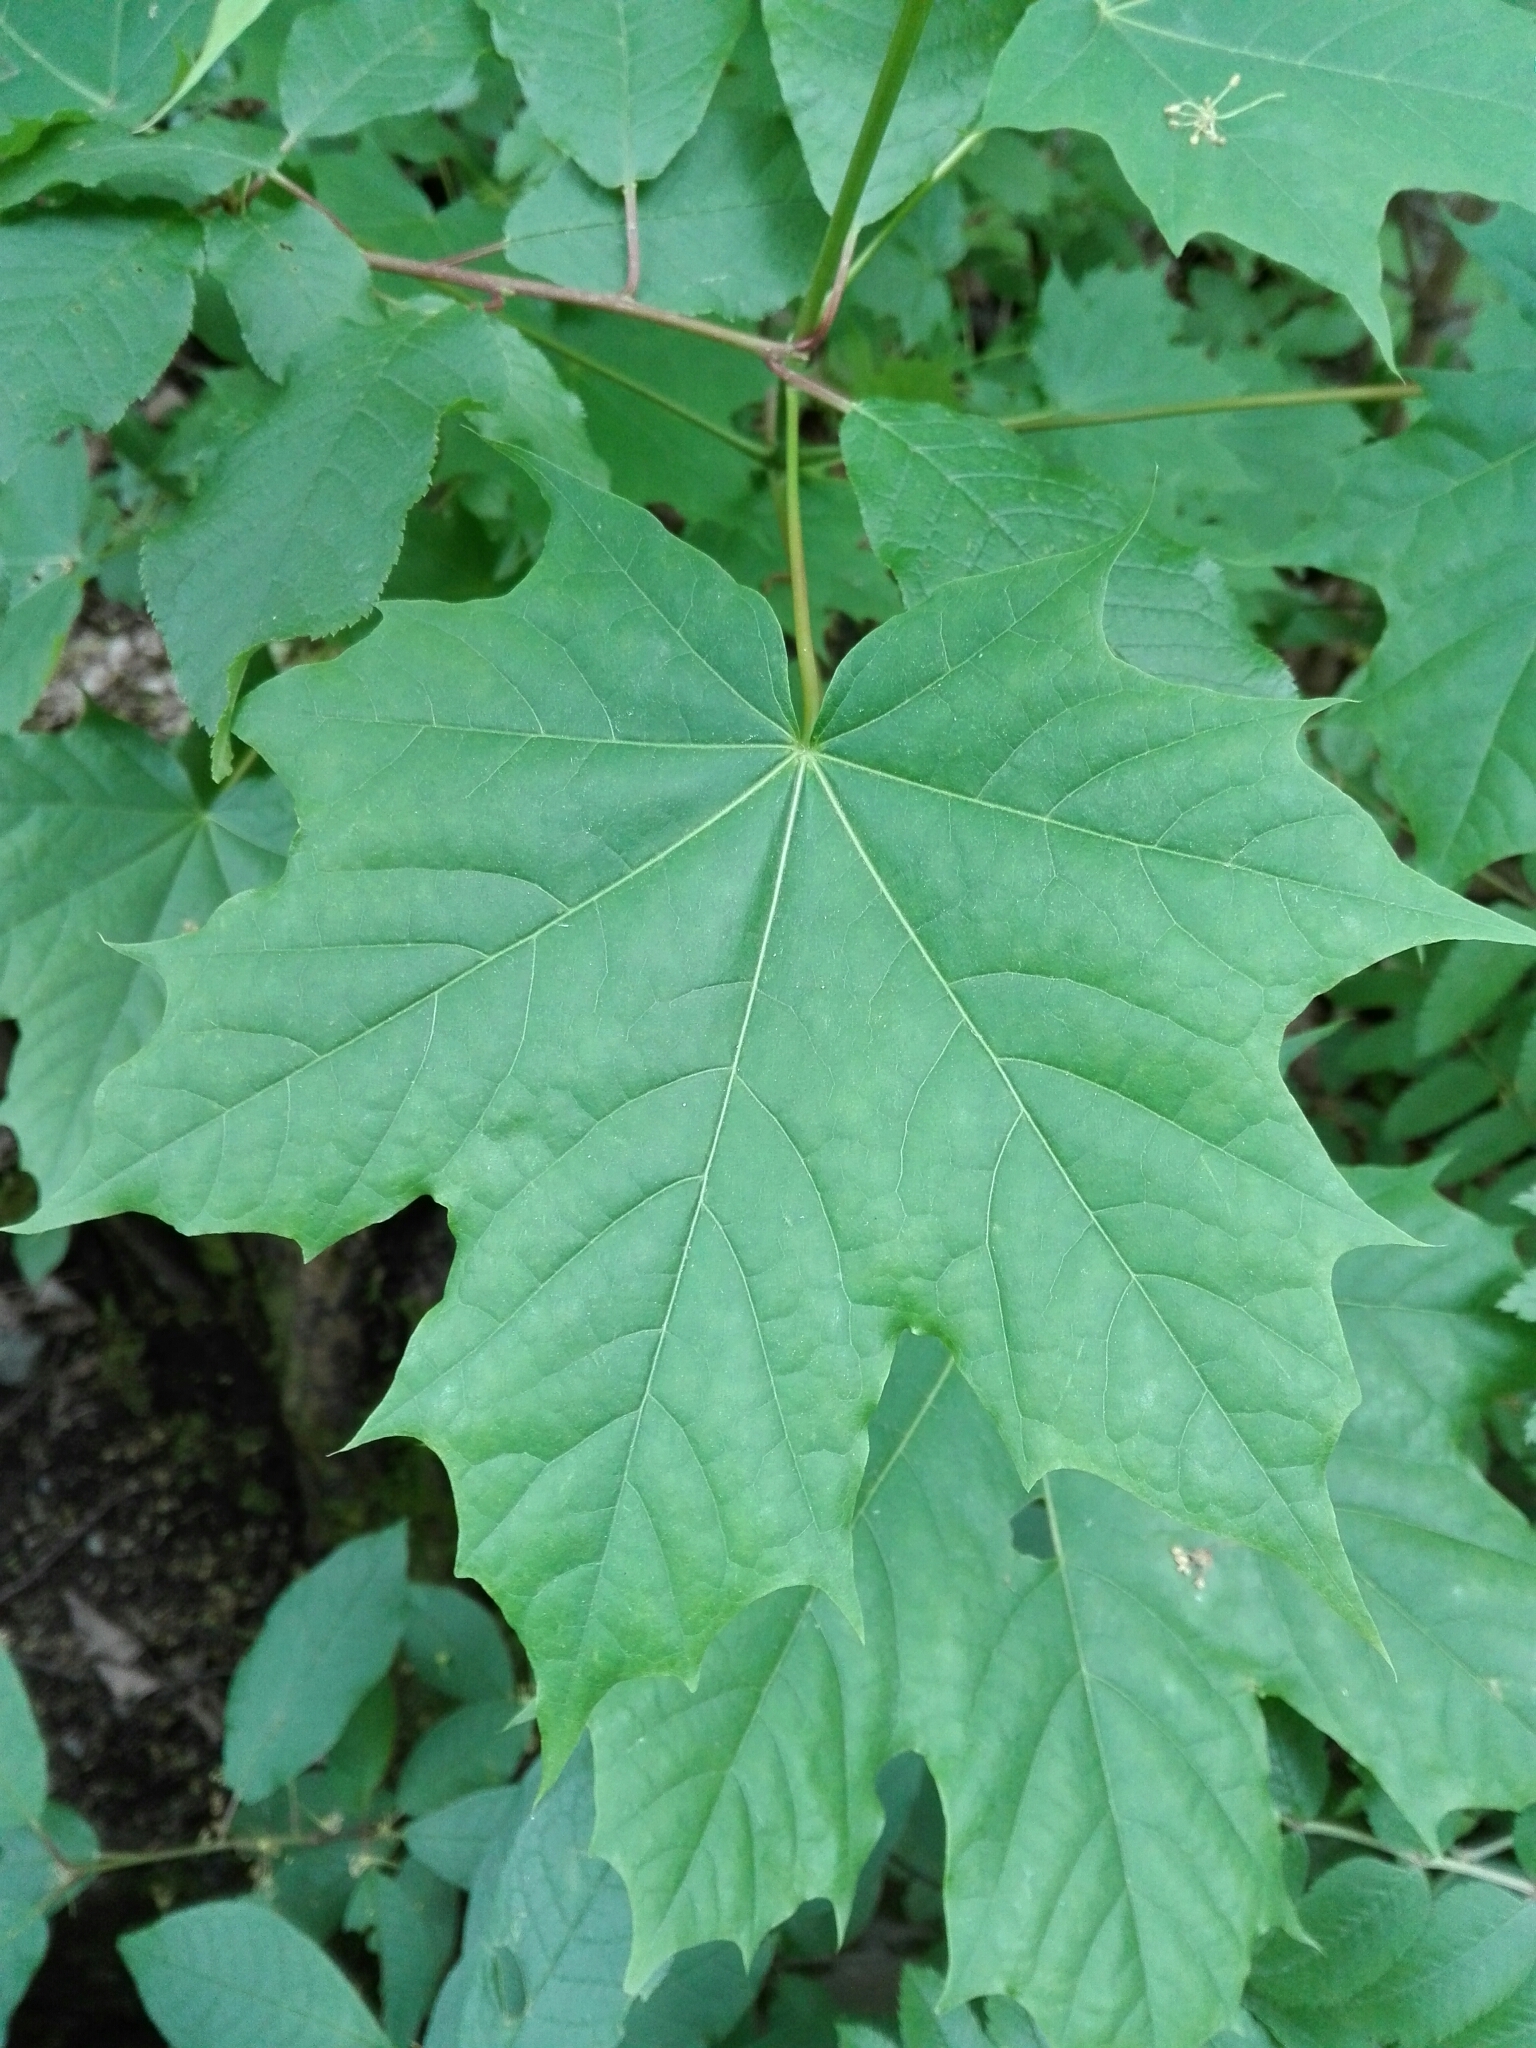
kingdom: Plantae
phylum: Tracheophyta
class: Magnoliopsida
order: Sapindales
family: Sapindaceae
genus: Acer
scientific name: Acer platanoides
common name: Norway maple
